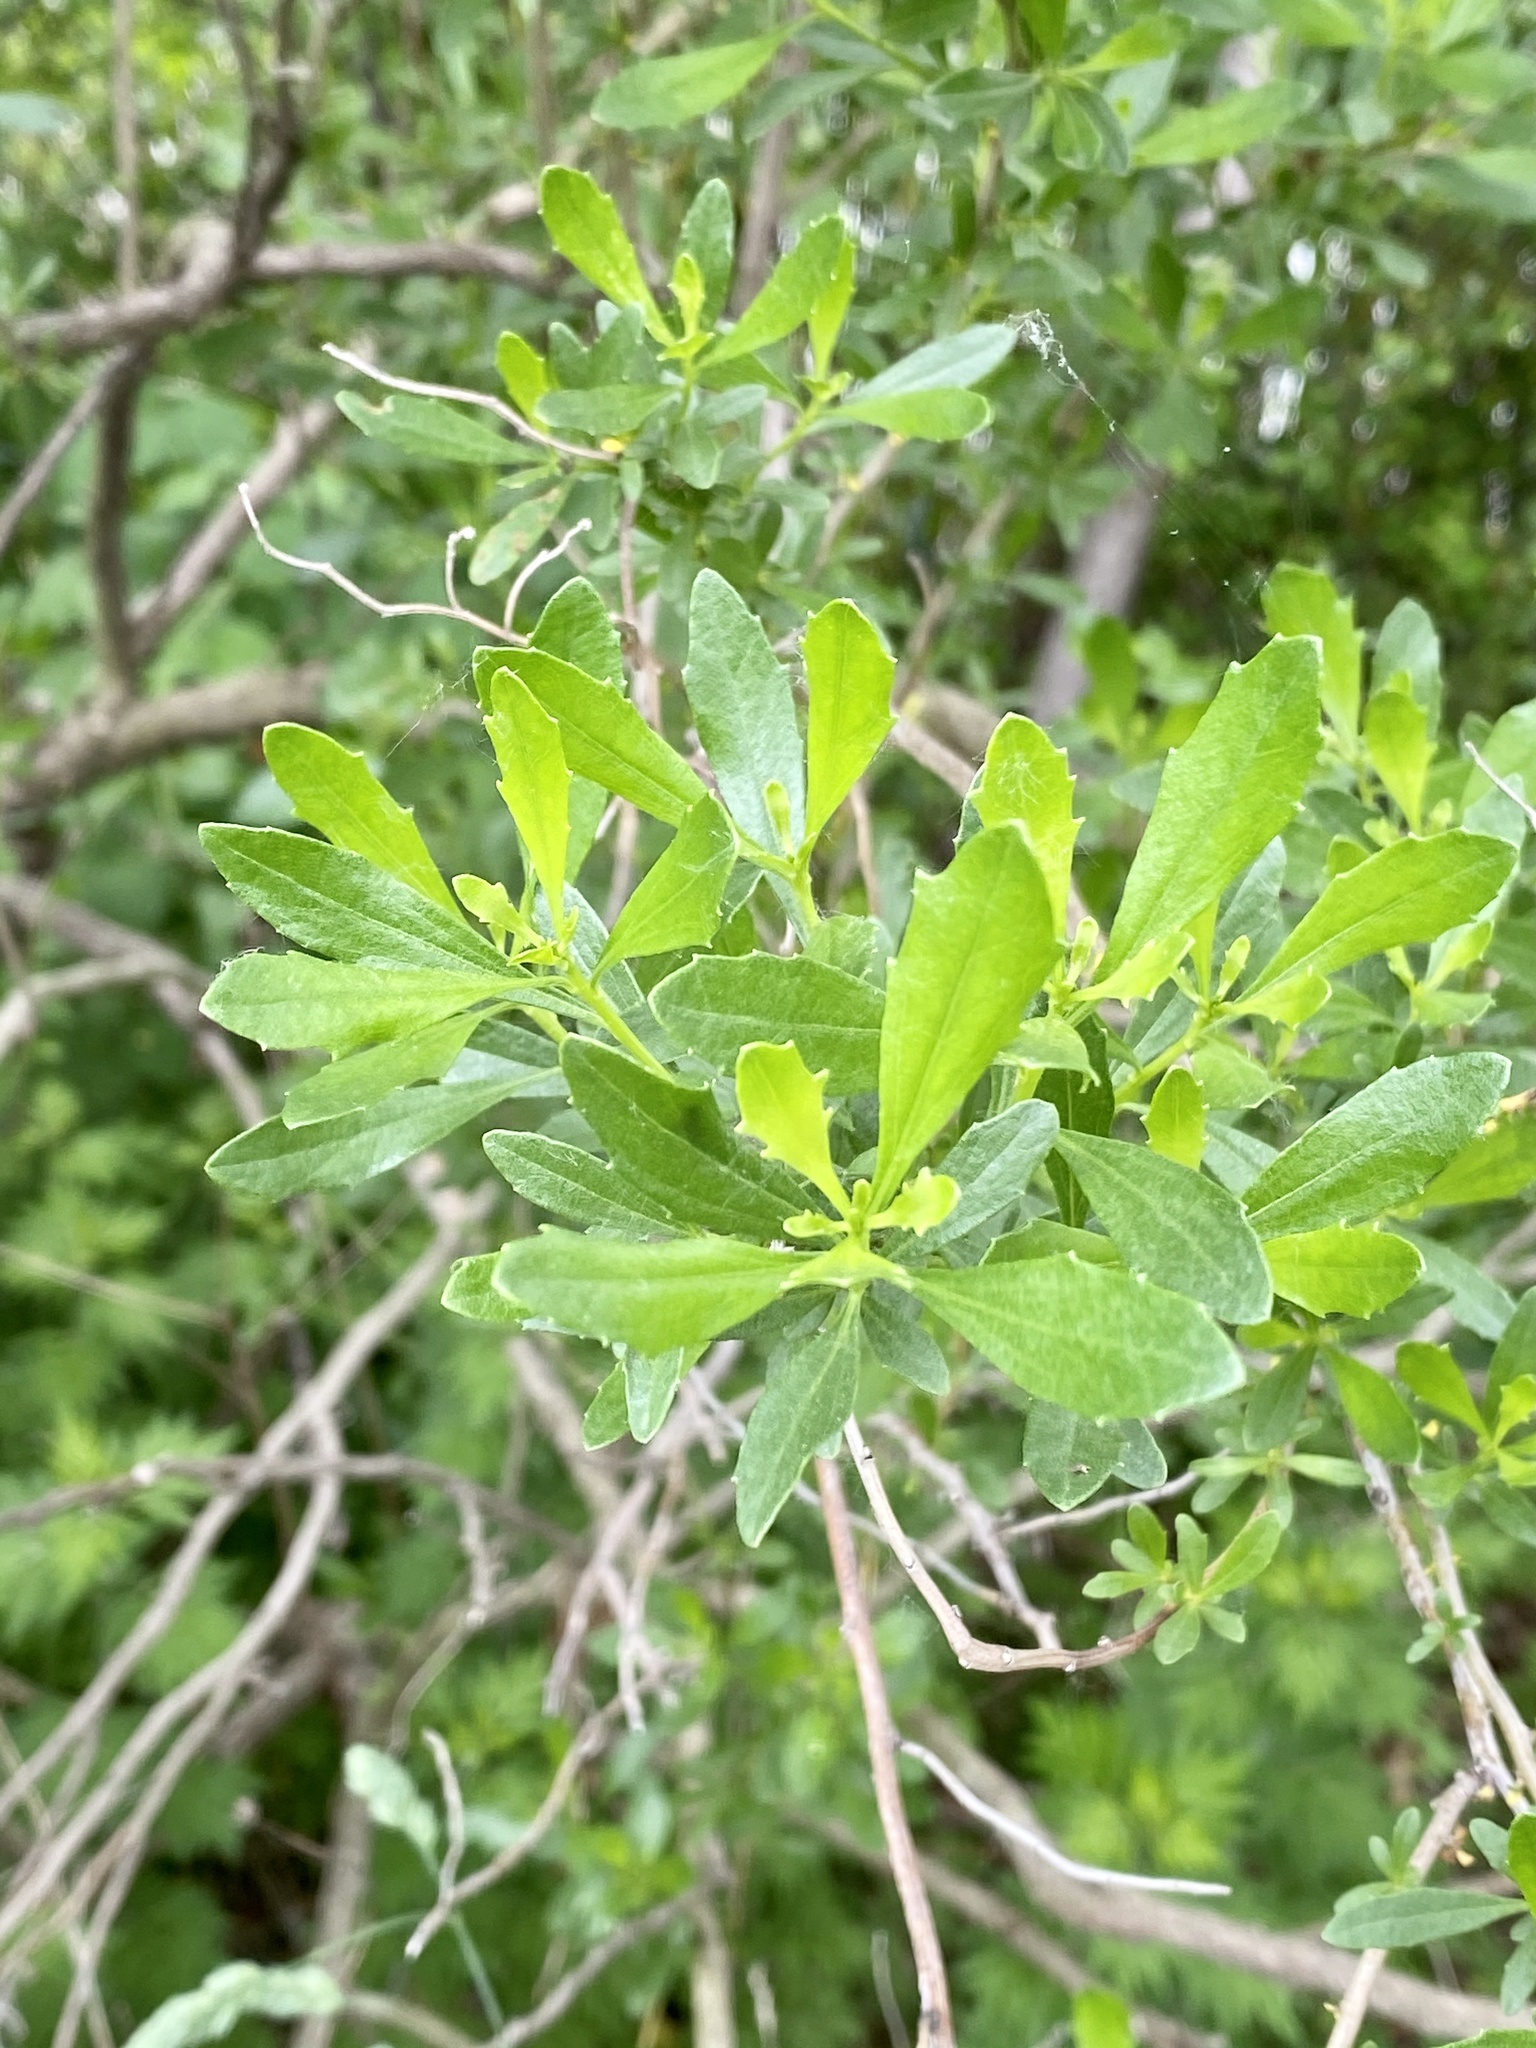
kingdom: Plantae
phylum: Tracheophyta
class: Magnoliopsida
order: Asterales
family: Asteraceae
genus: Baccharis
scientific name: Baccharis halimifolia
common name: Eastern baccharis
